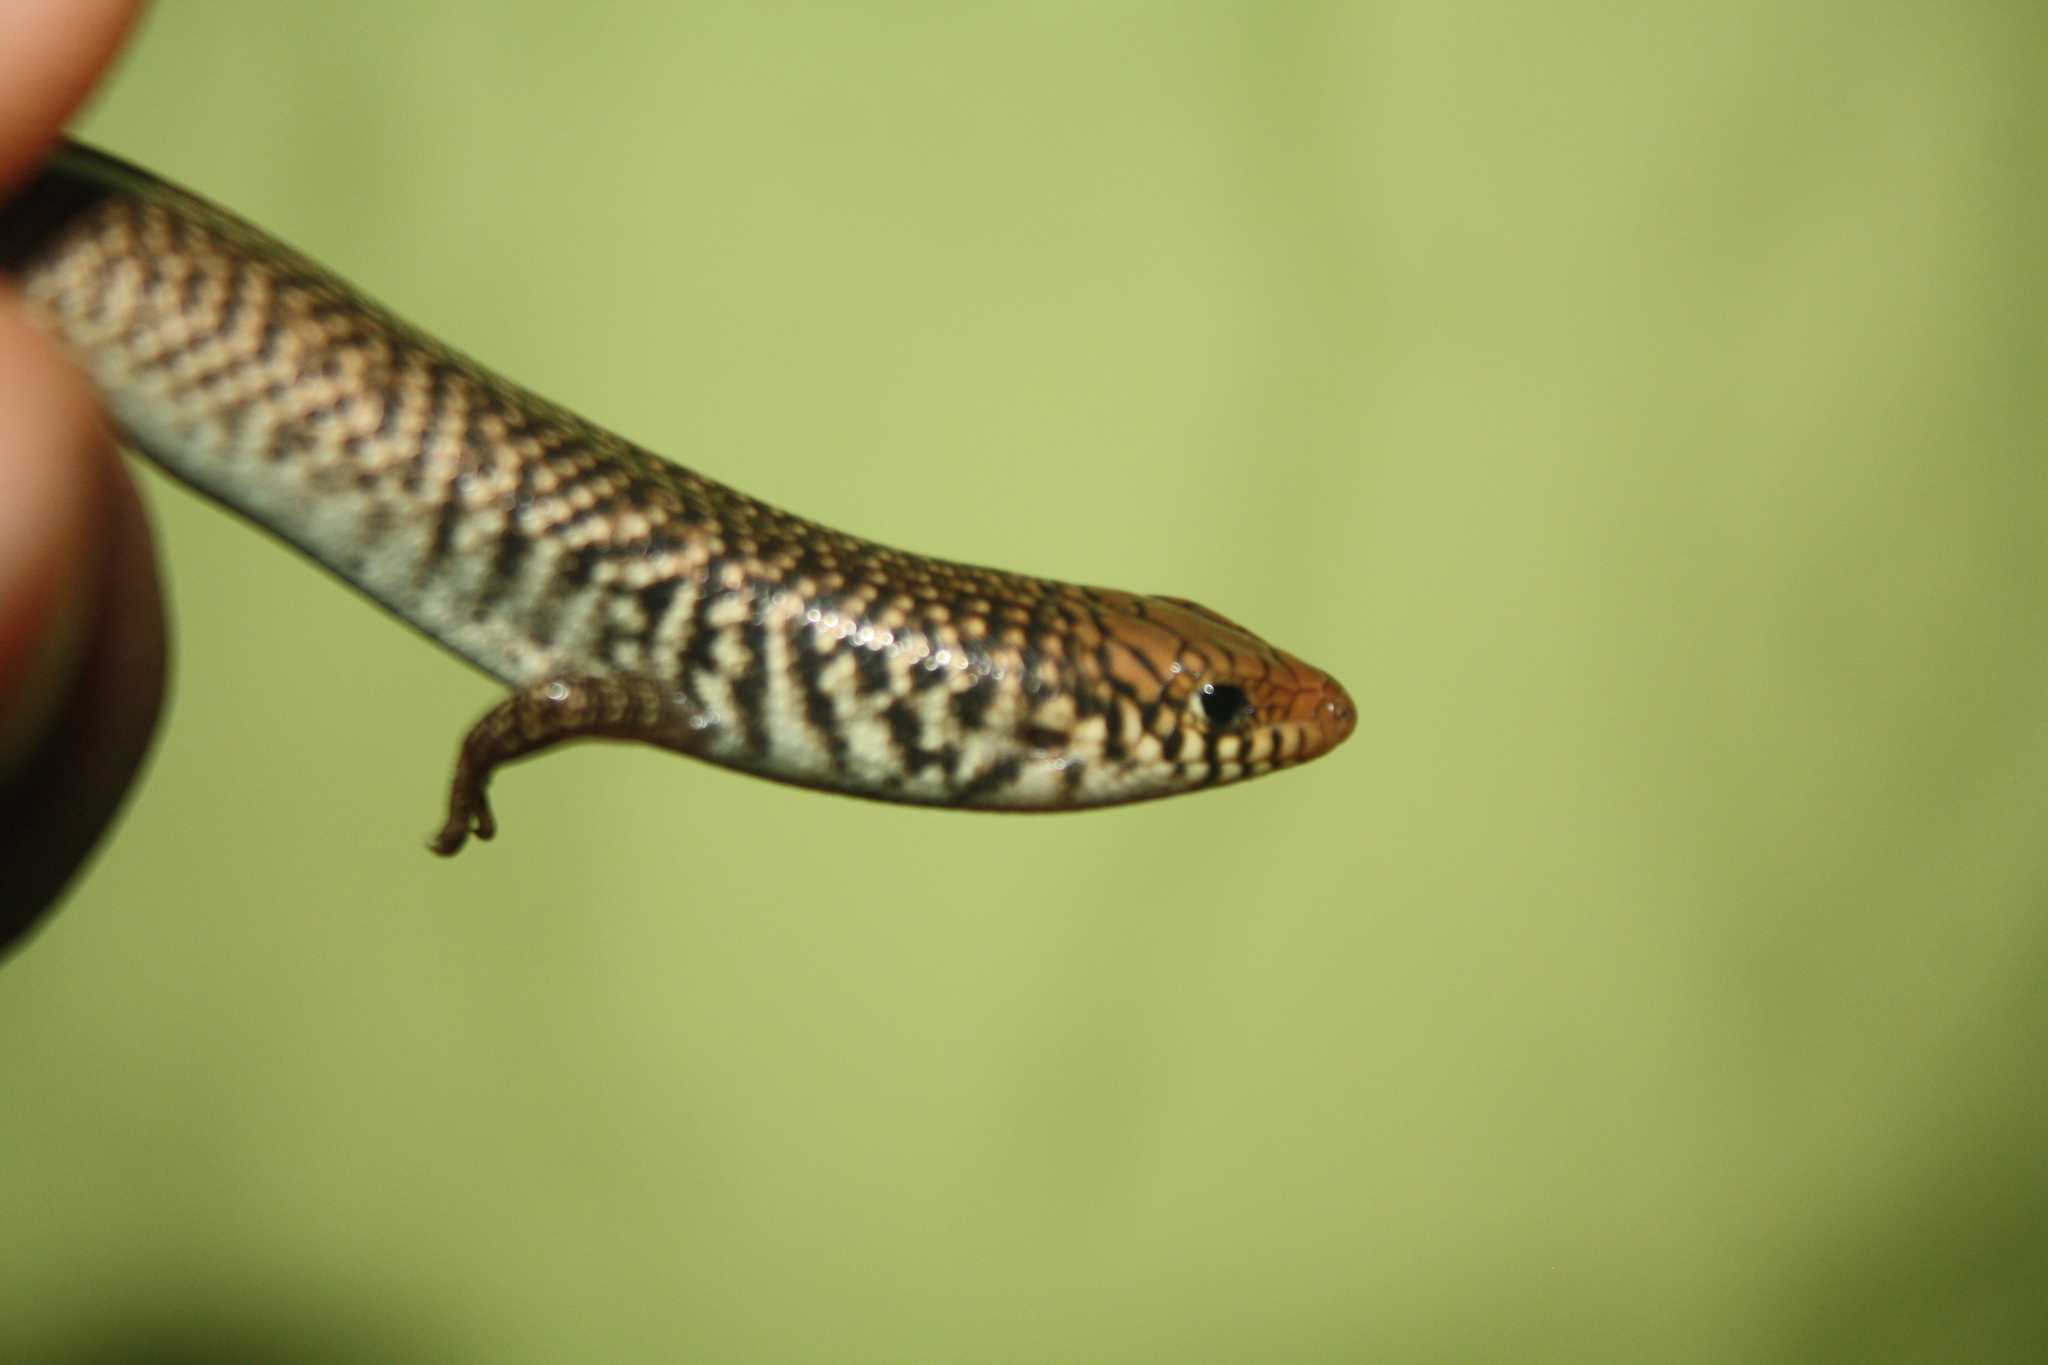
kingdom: Animalia
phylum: Chordata
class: Squamata
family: Scincidae
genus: Chalcides
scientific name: Chalcides polylepis
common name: Many-scaled cylindrical skink
